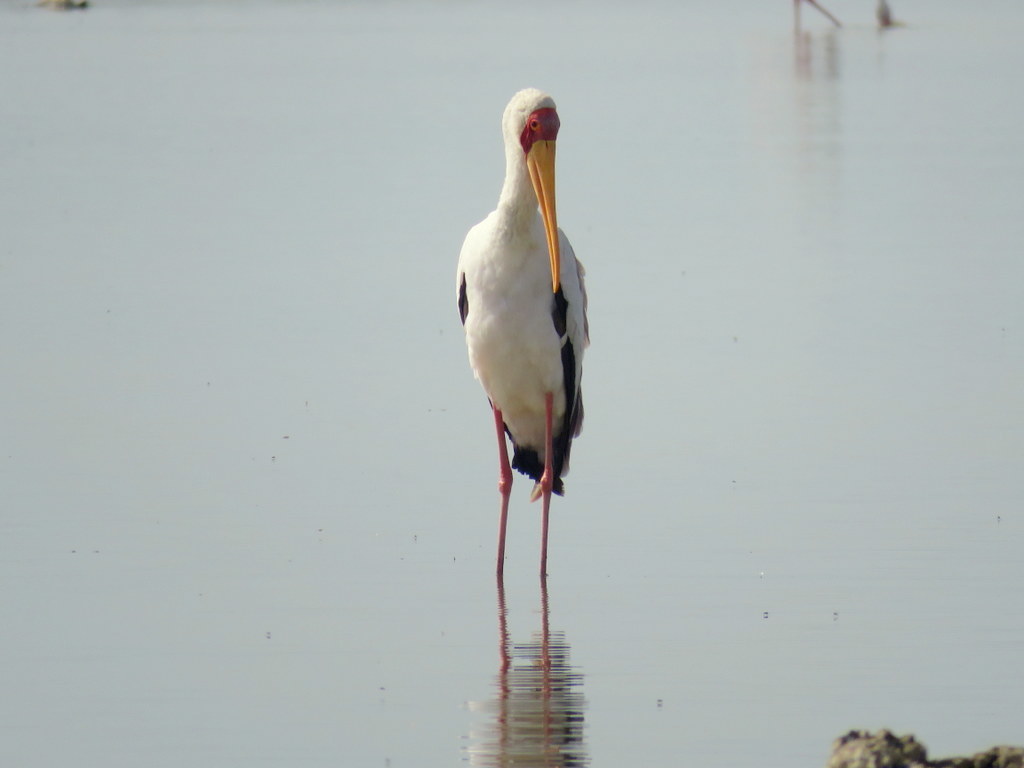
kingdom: Animalia
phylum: Chordata
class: Aves
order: Ciconiiformes
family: Ciconiidae
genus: Mycteria
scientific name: Mycteria ibis
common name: Yellow-billed stork
